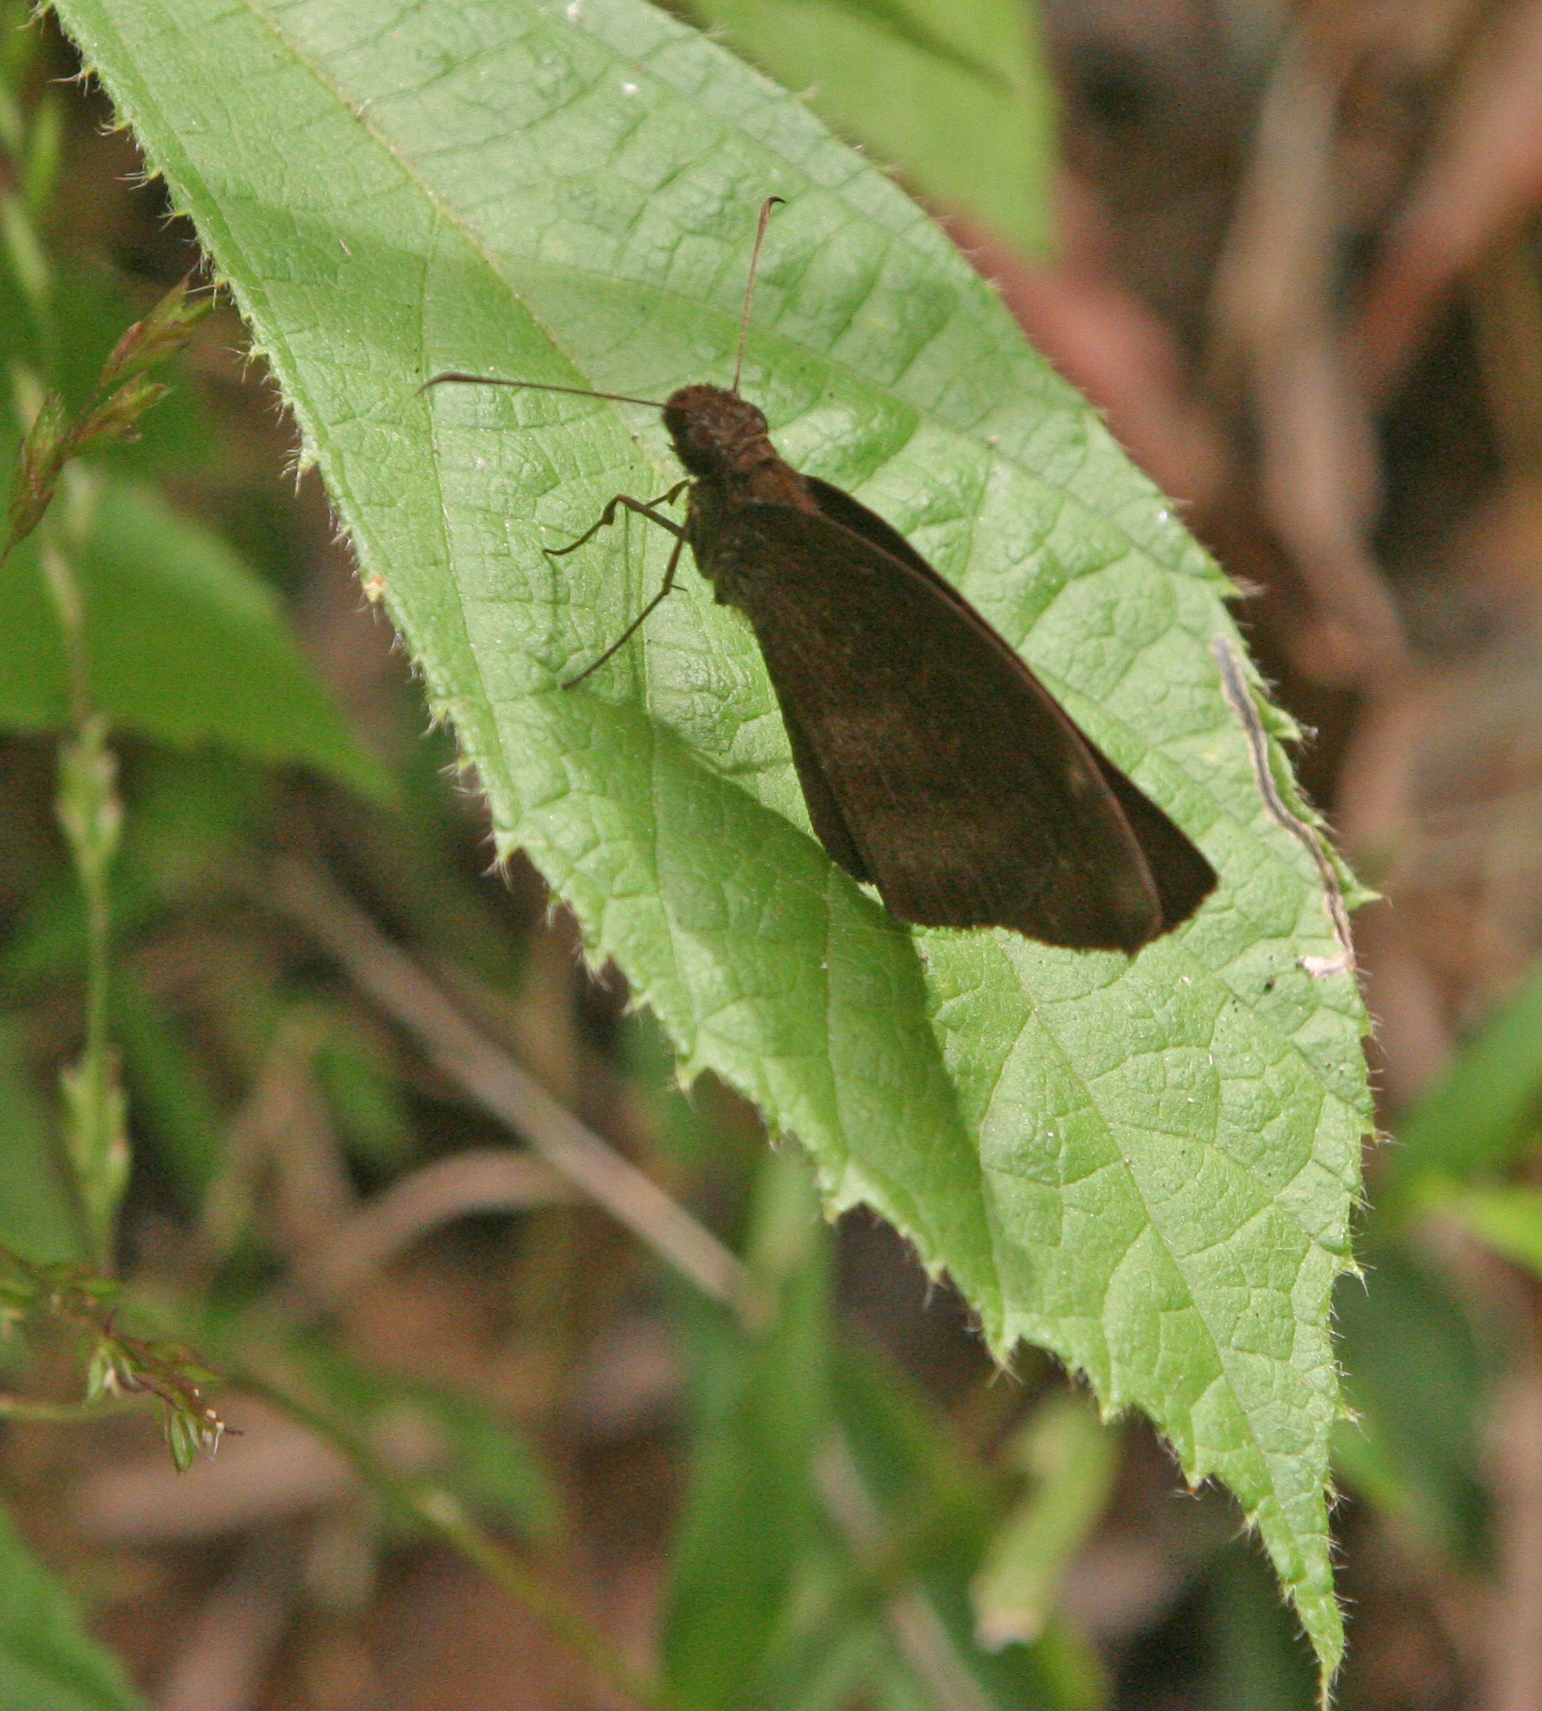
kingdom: Animalia
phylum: Arthropoda
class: Insecta
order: Lepidoptera
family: Hesperiidae
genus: Psolos
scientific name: Psolos fuligo
